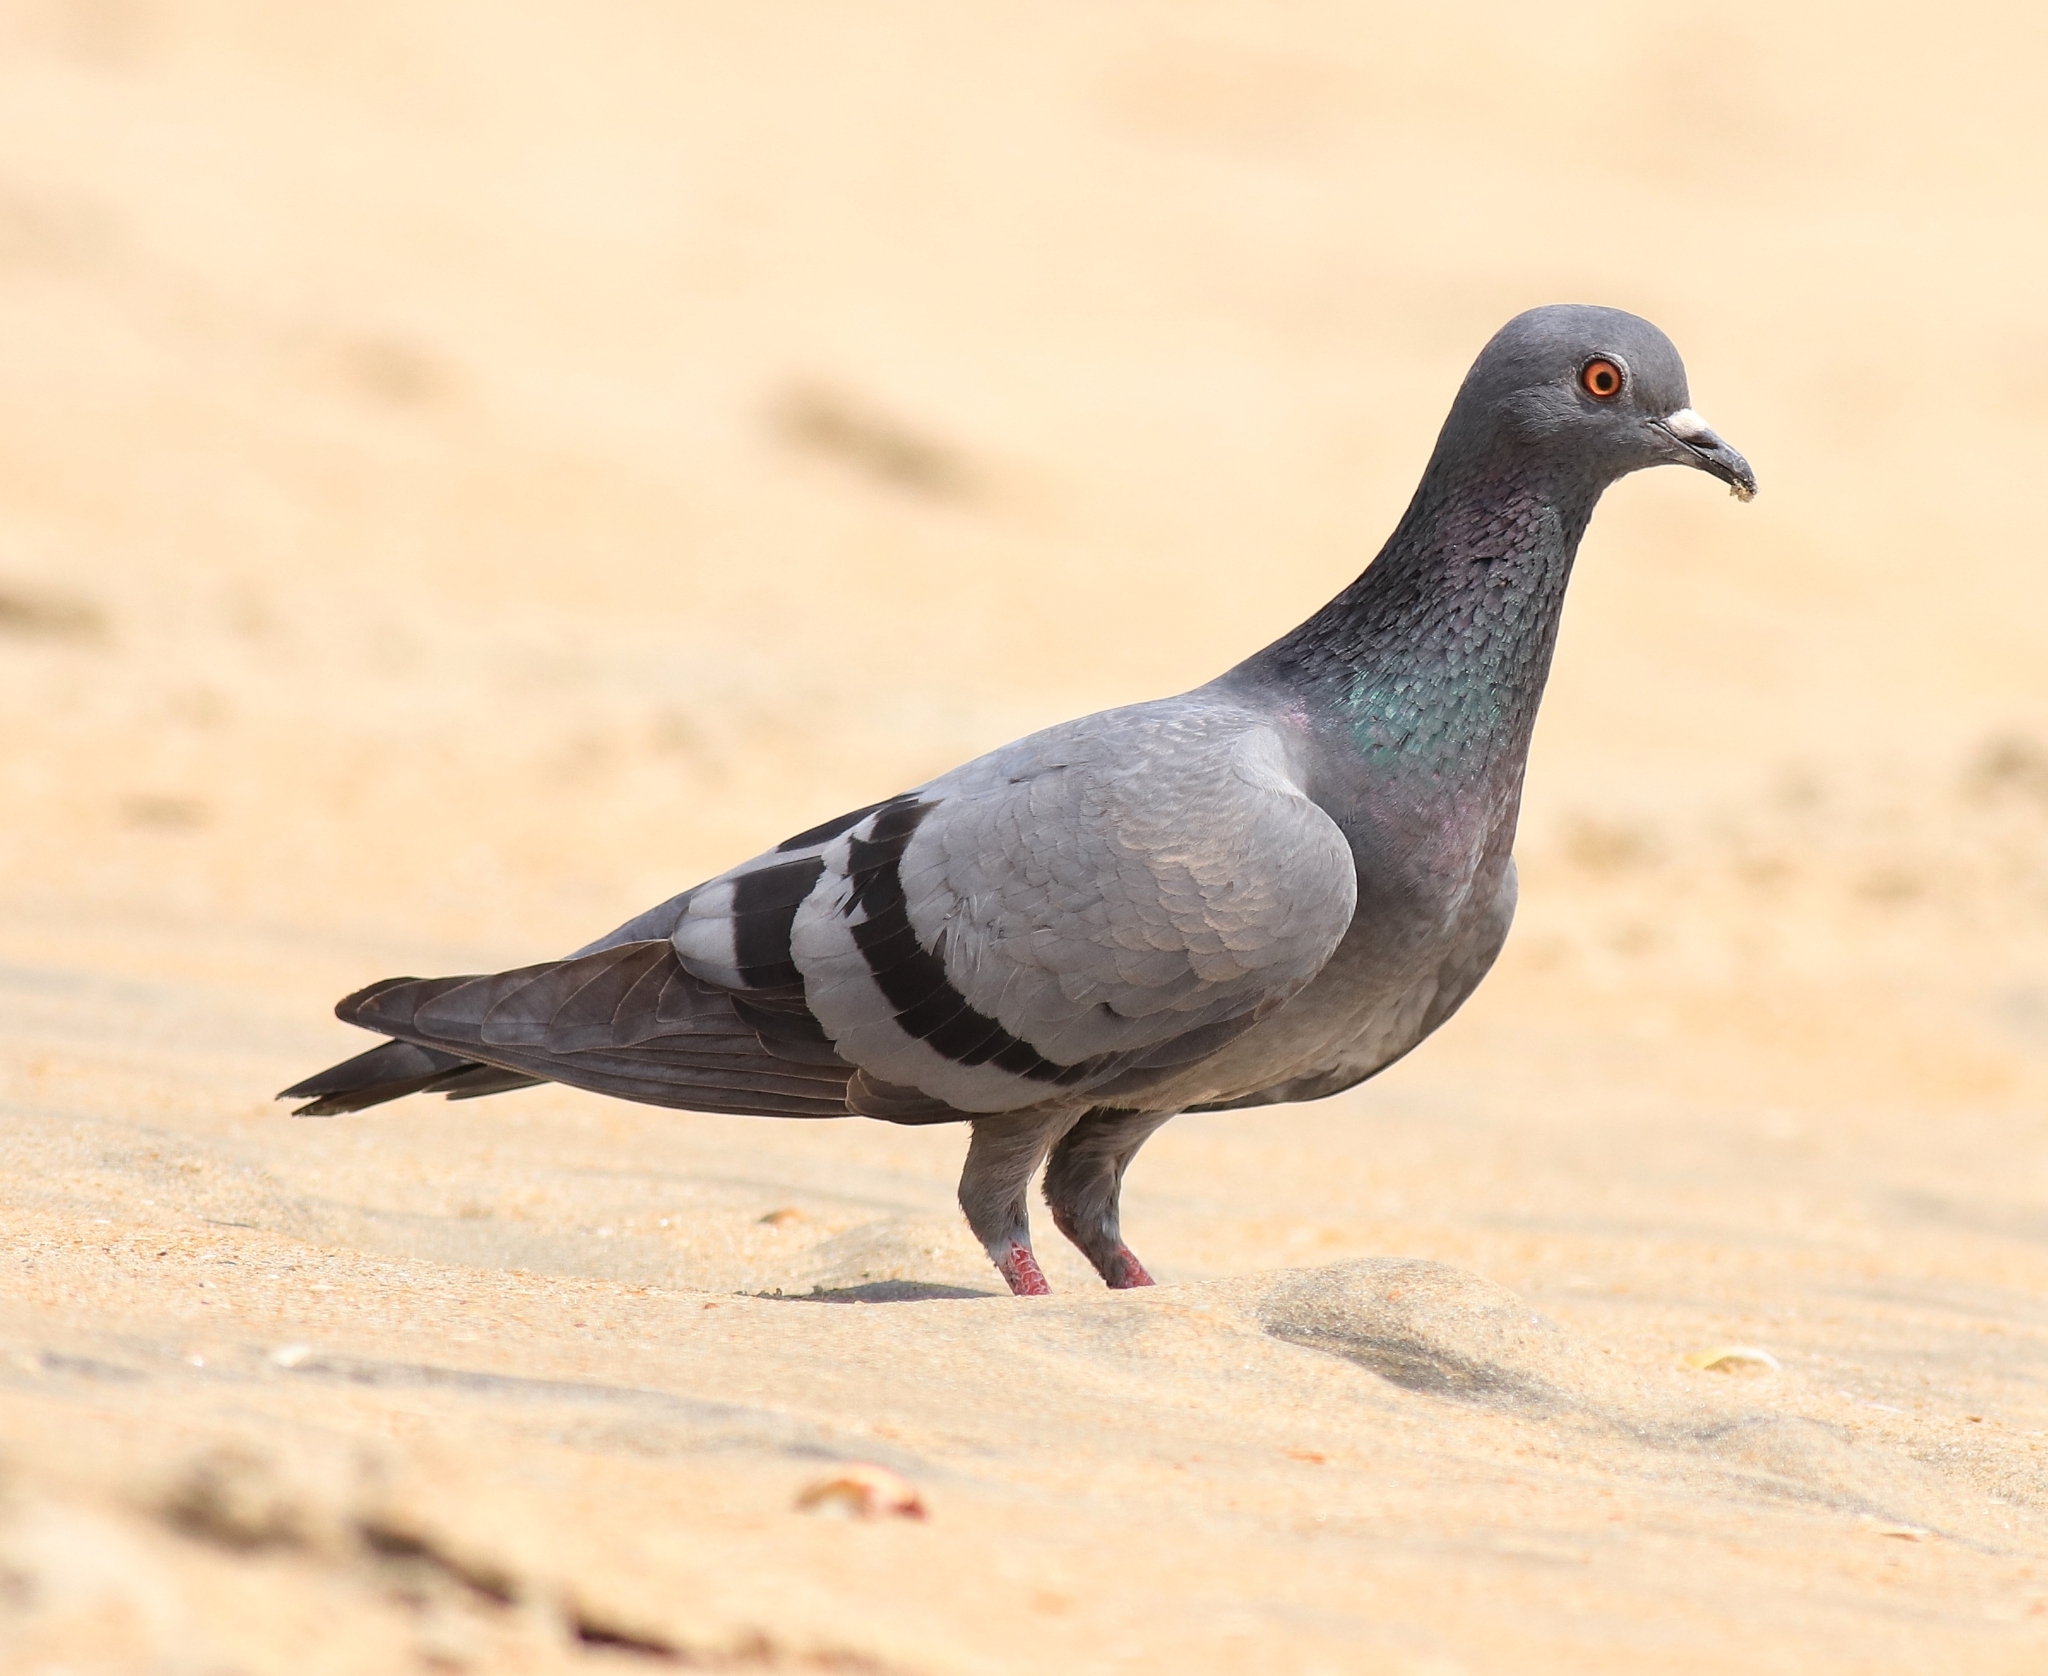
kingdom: Animalia
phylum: Chordata
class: Aves
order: Columbiformes
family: Columbidae
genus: Columba
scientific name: Columba livia
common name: Rock pigeon
